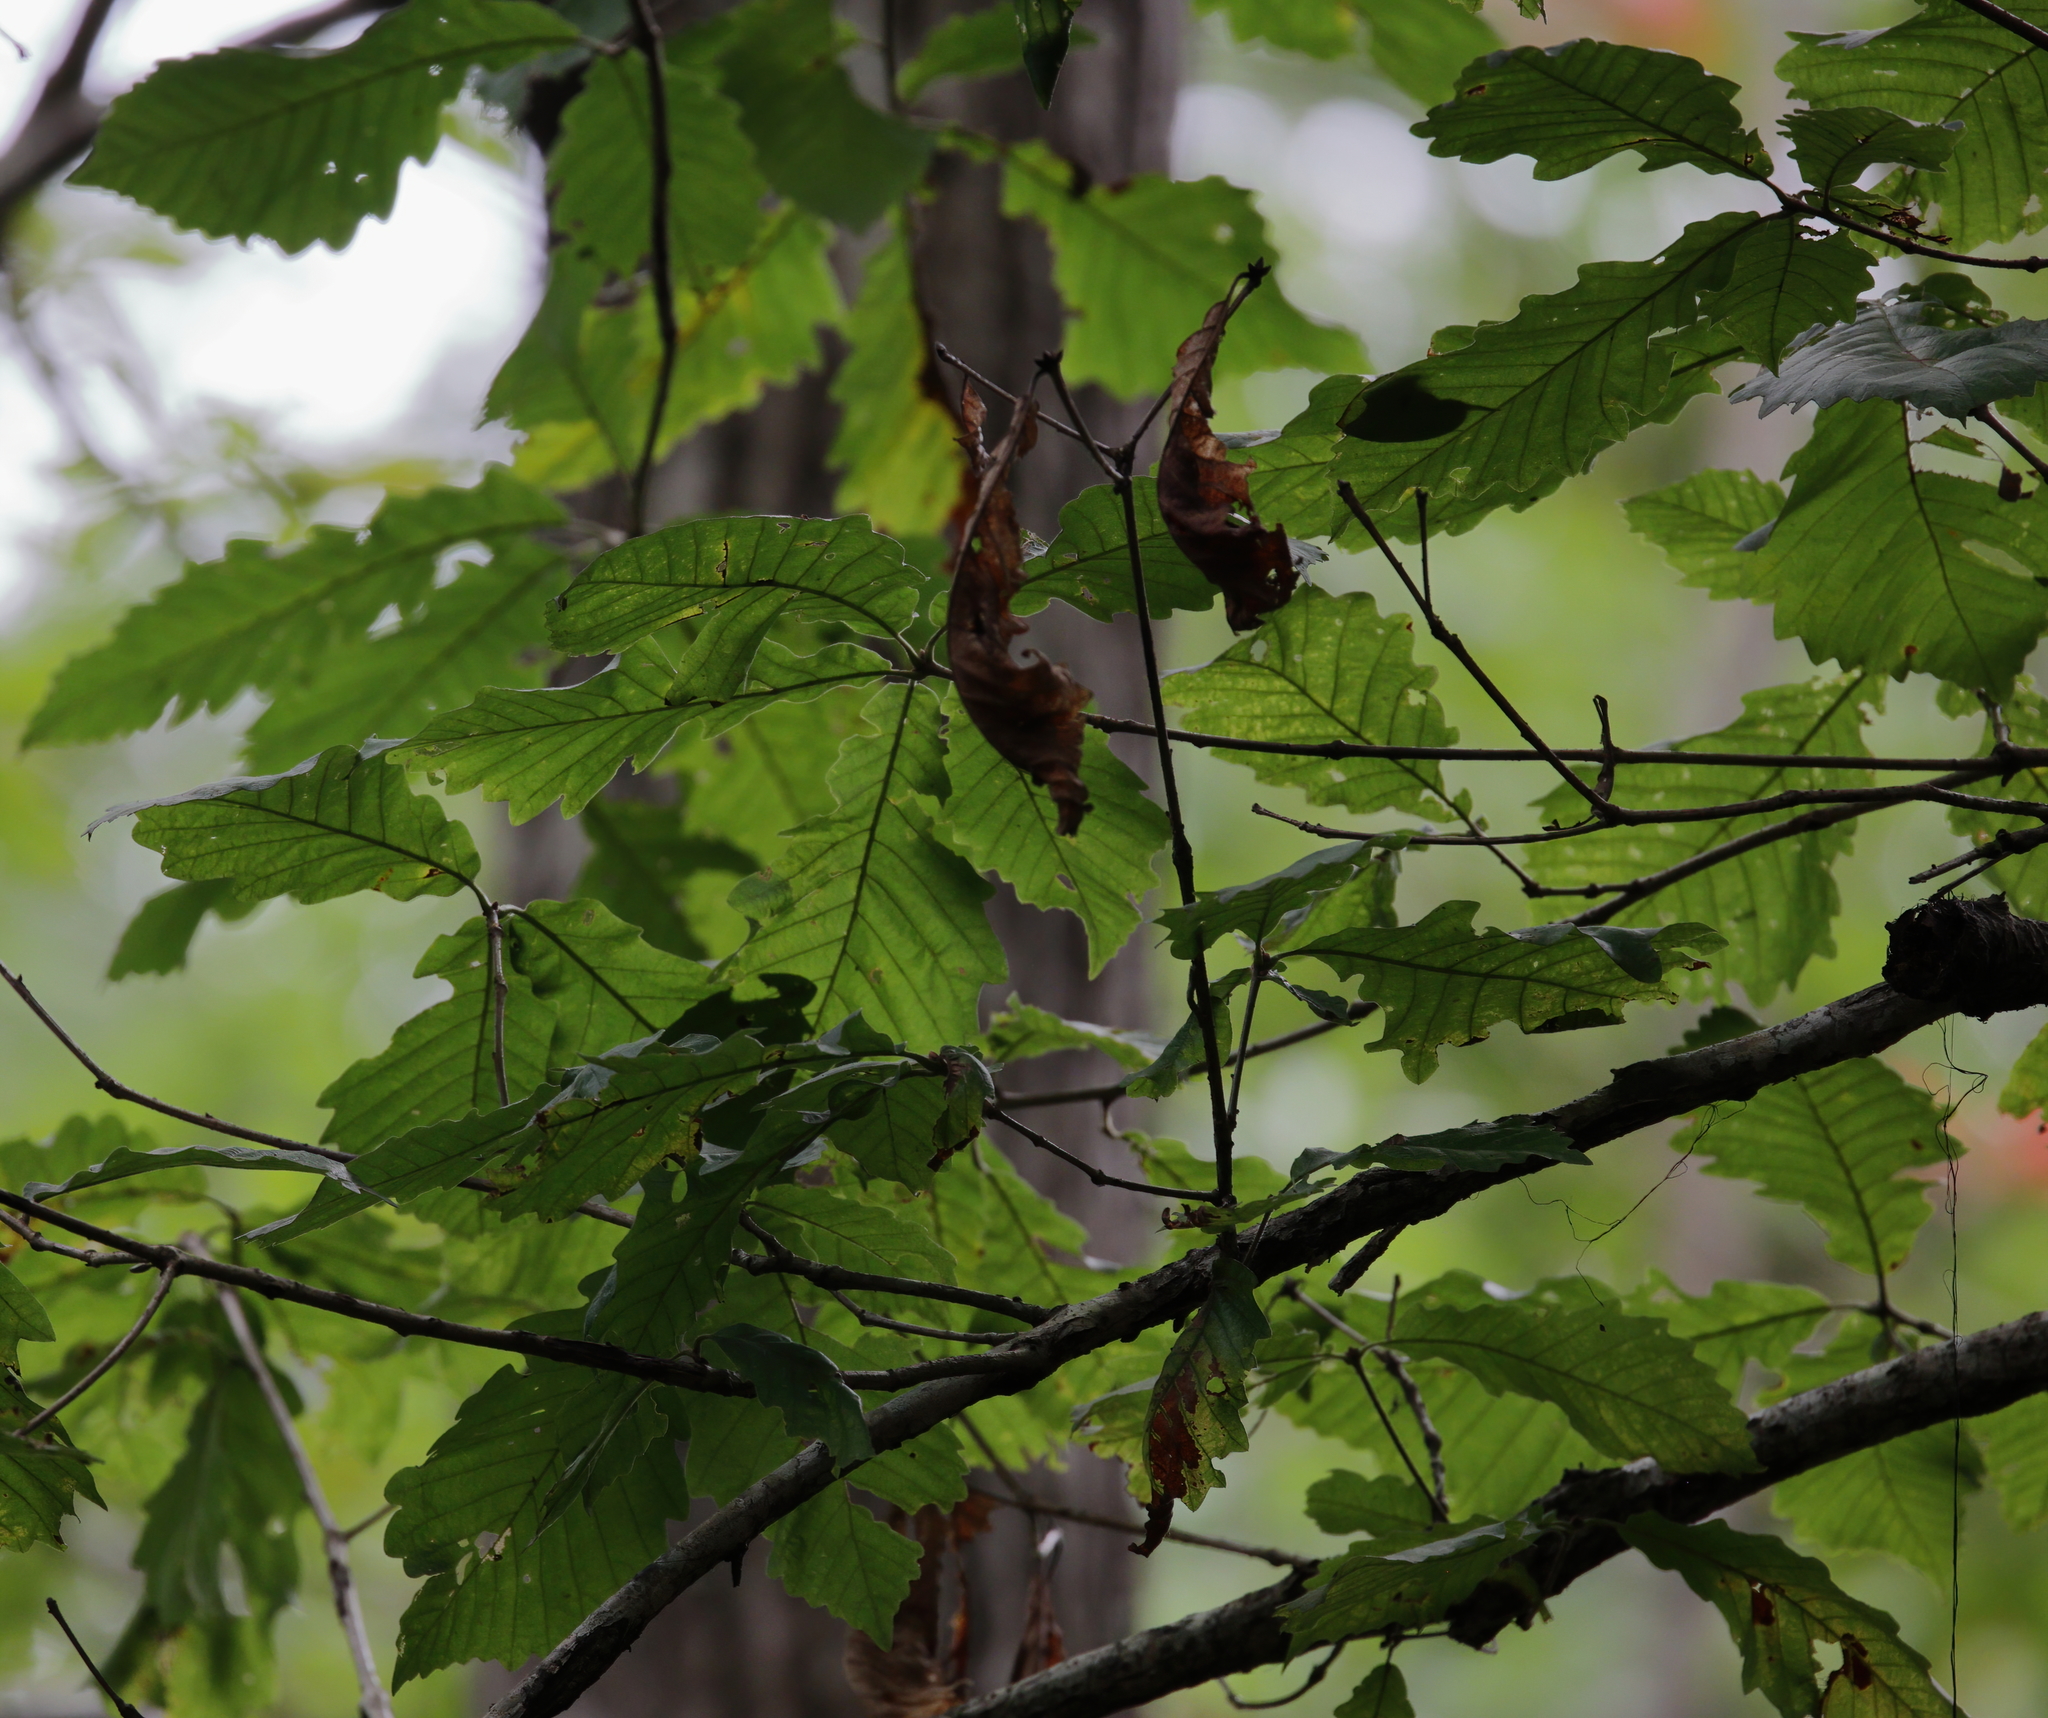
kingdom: Plantae
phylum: Tracheophyta
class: Magnoliopsida
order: Fagales
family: Fagaceae
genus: Quercus
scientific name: Quercus michauxii
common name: Swamp chestnut oak
